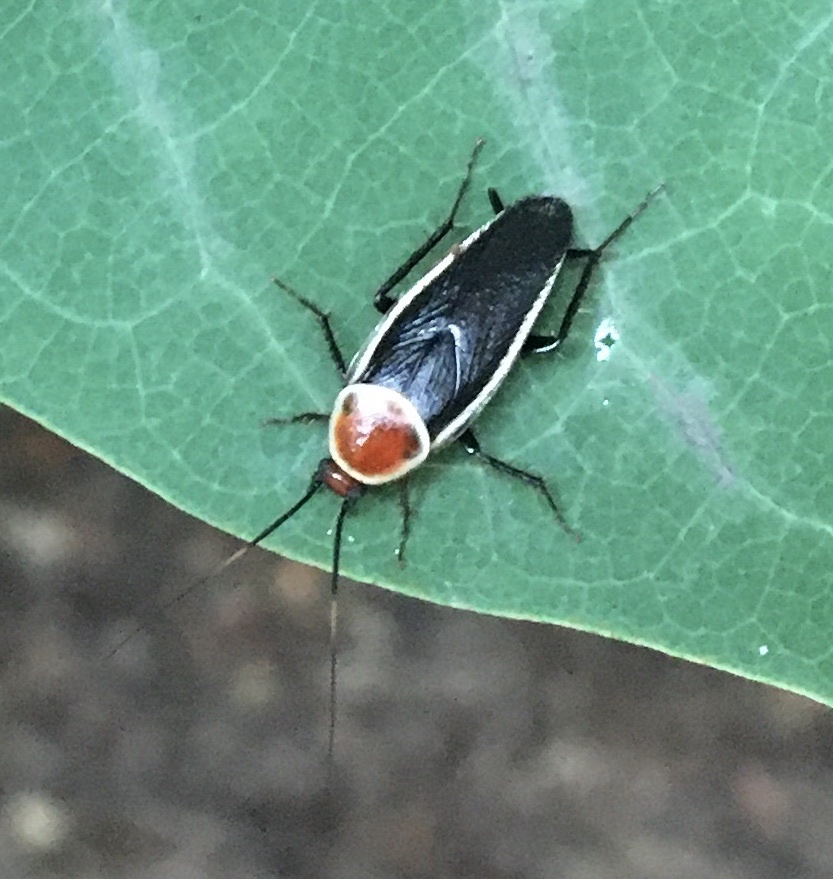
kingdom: Animalia
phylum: Arthropoda
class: Insecta
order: Blattodea
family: Ectobiidae
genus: Pseudomops
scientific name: Pseudomops septentrionalis
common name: Pale-bordered field cockroach
